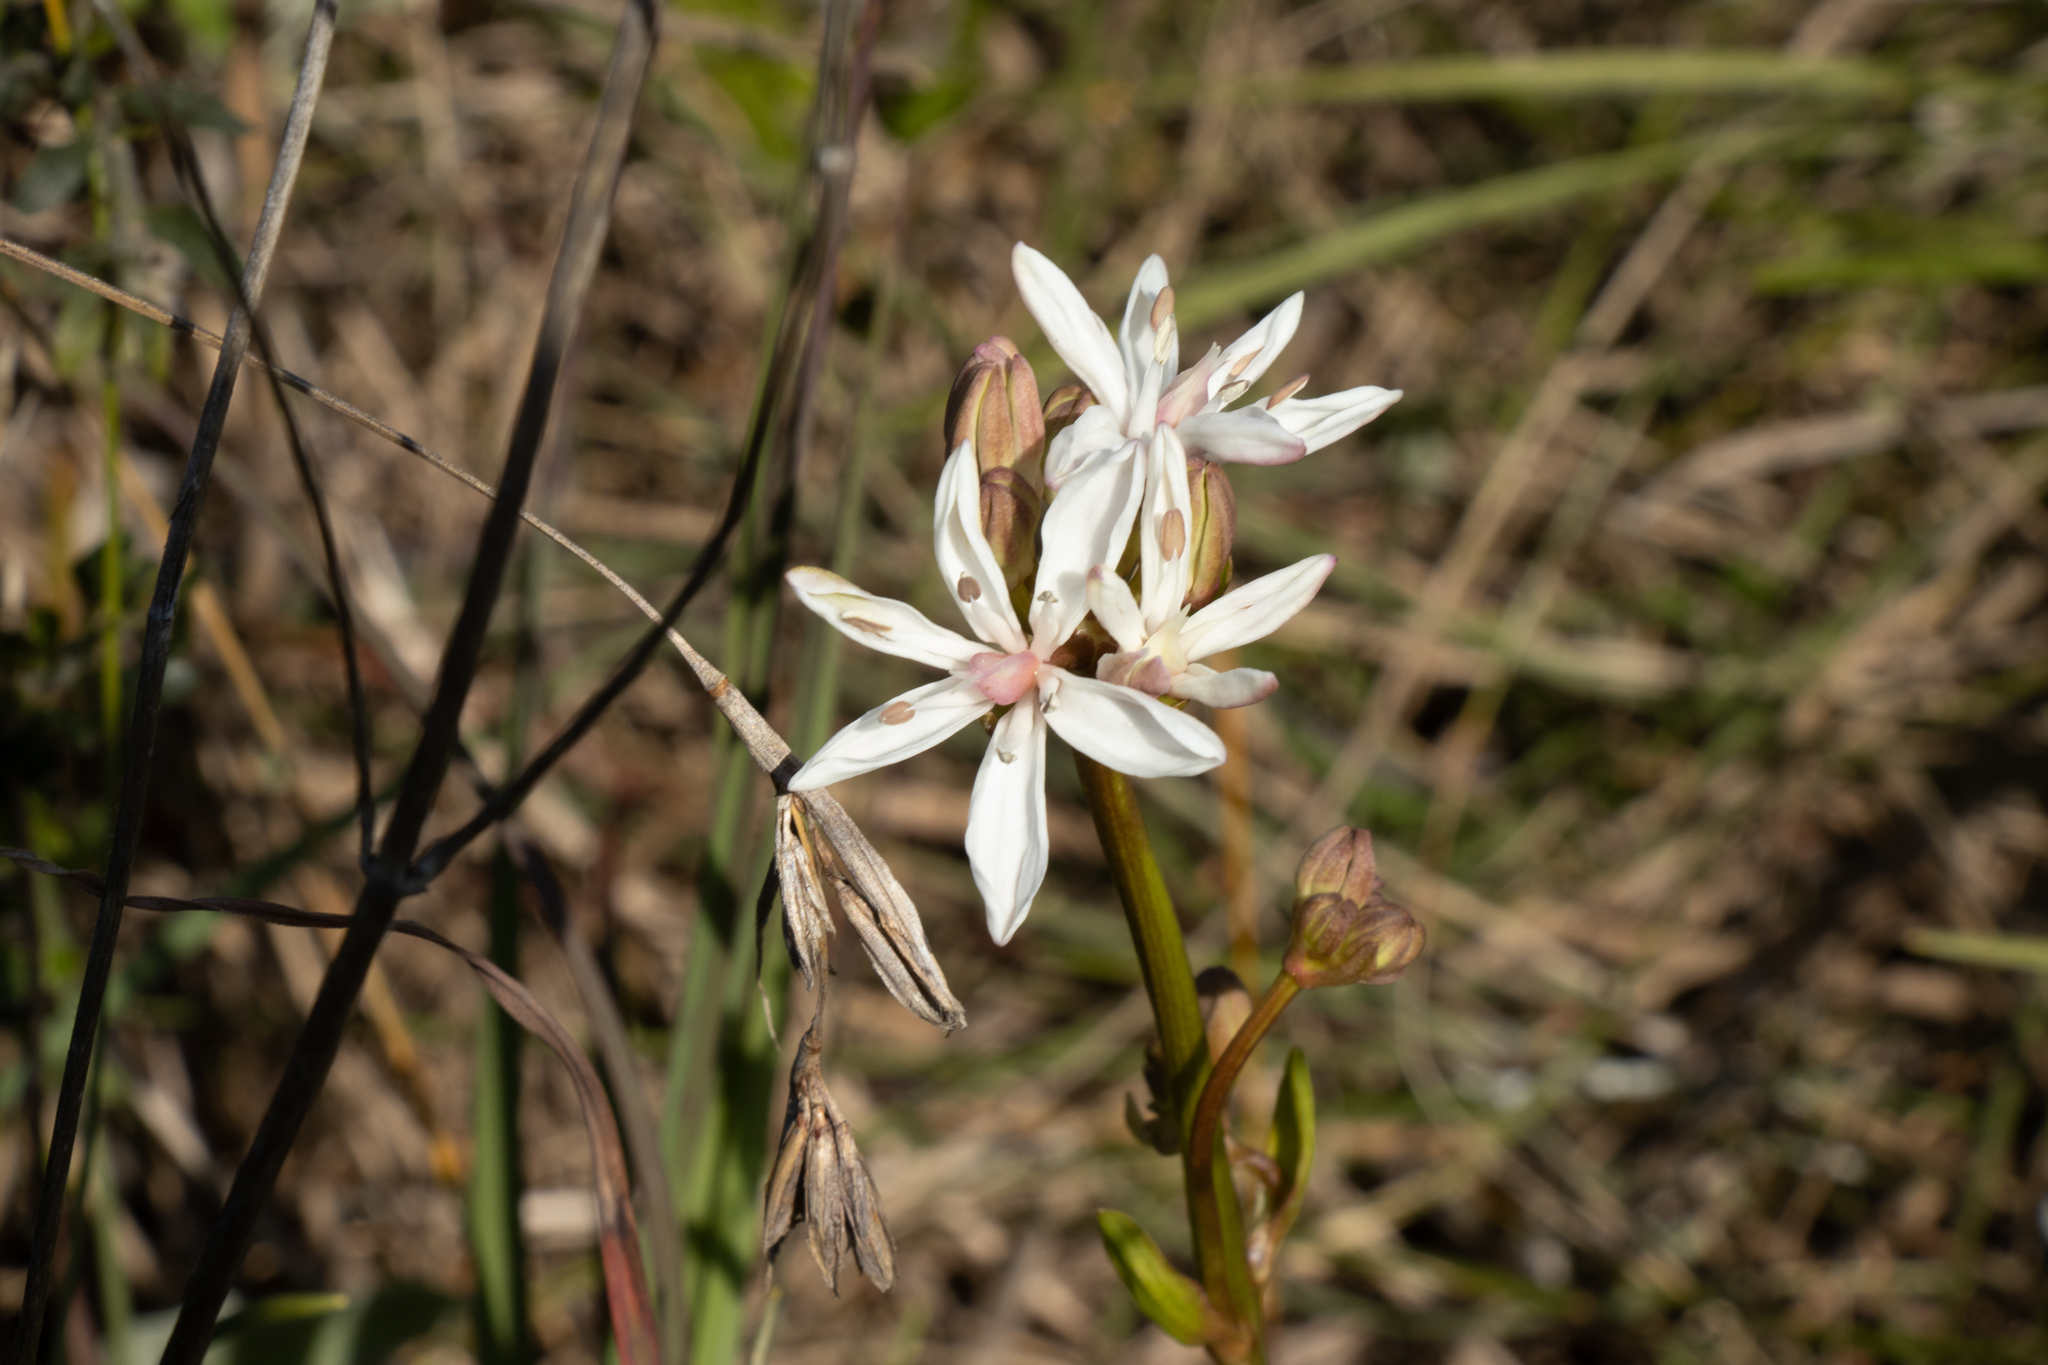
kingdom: Plantae
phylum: Tracheophyta
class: Liliopsida
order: Liliales
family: Colchicaceae
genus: Burchardia
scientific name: Burchardia umbellata
